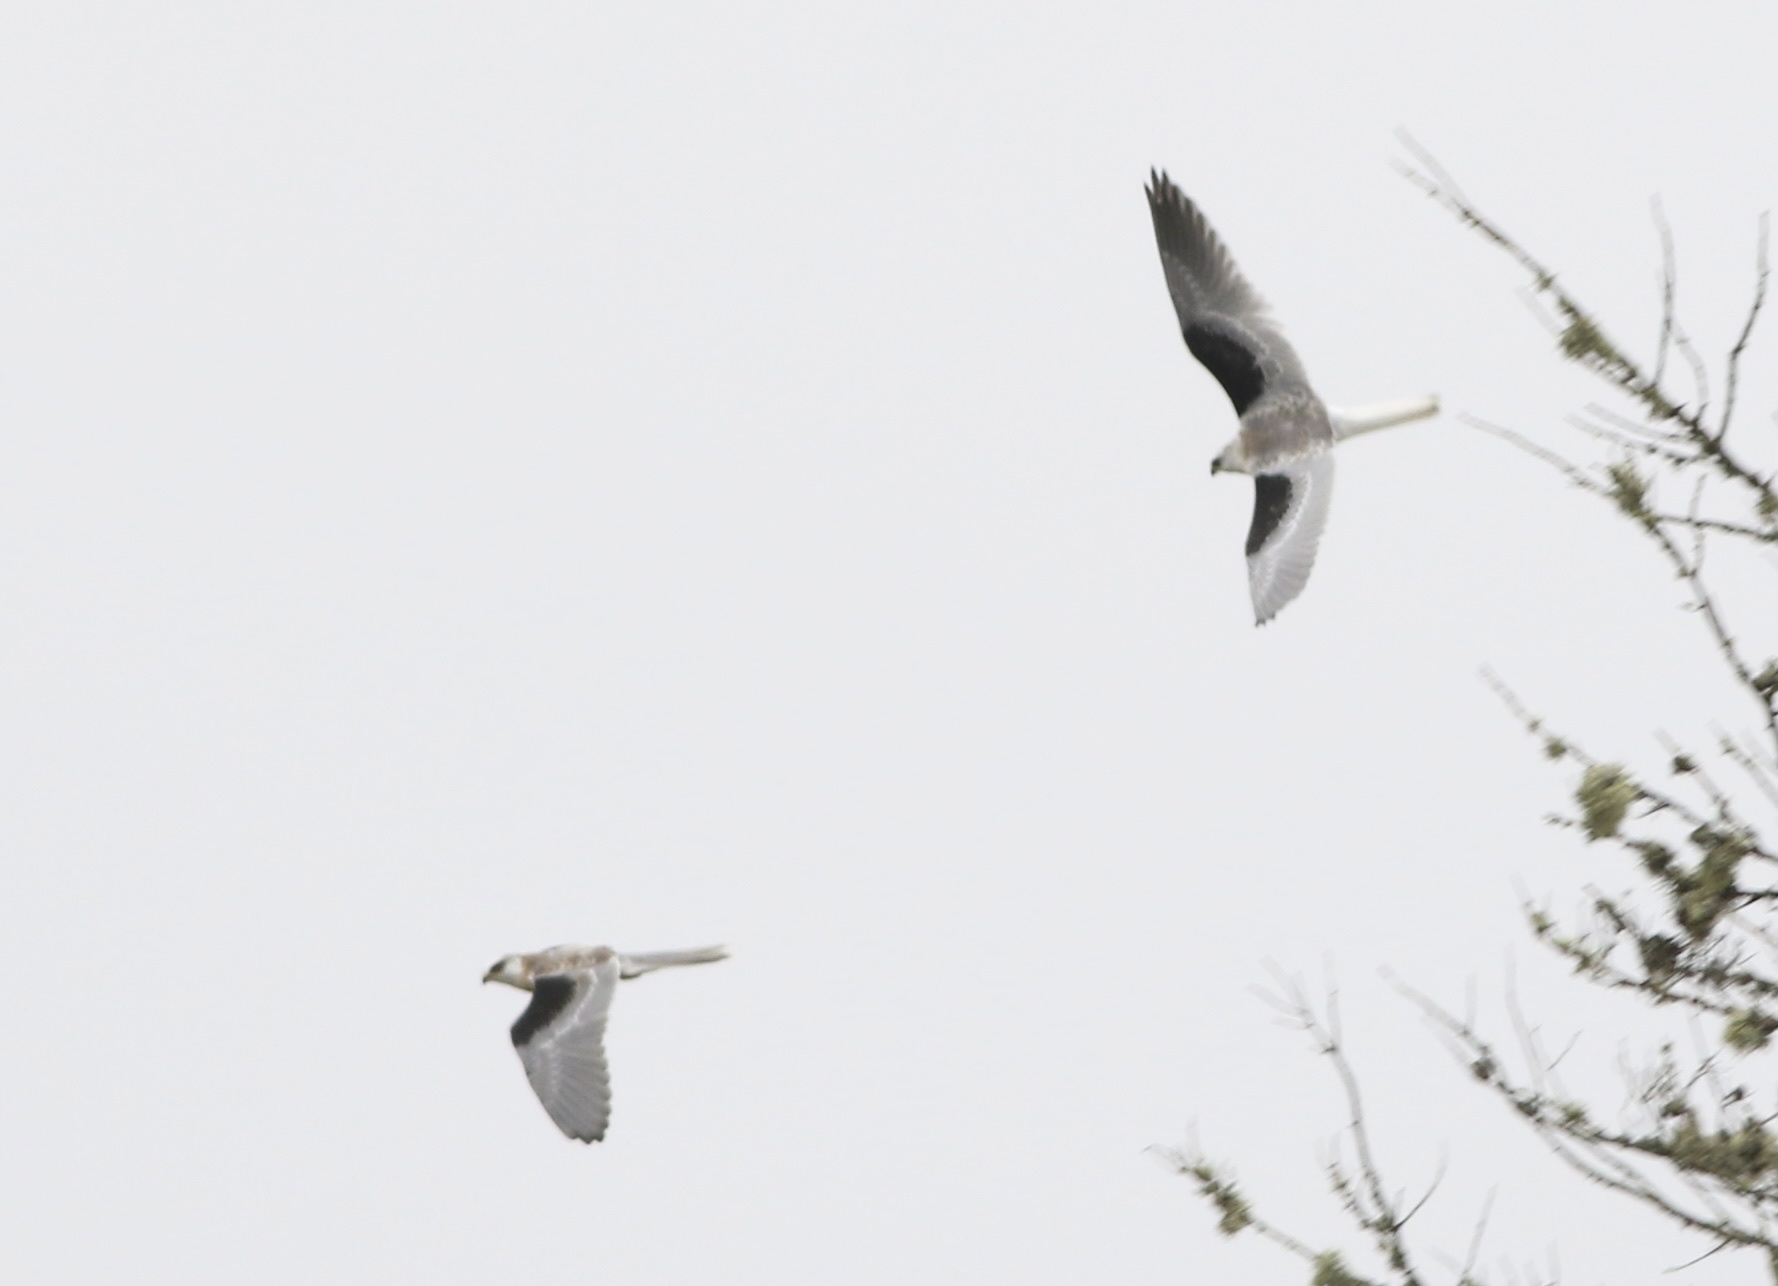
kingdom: Animalia
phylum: Chordata
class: Aves
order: Accipitriformes
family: Accipitridae
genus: Elanus
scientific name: Elanus leucurus
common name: White-tailed kite
